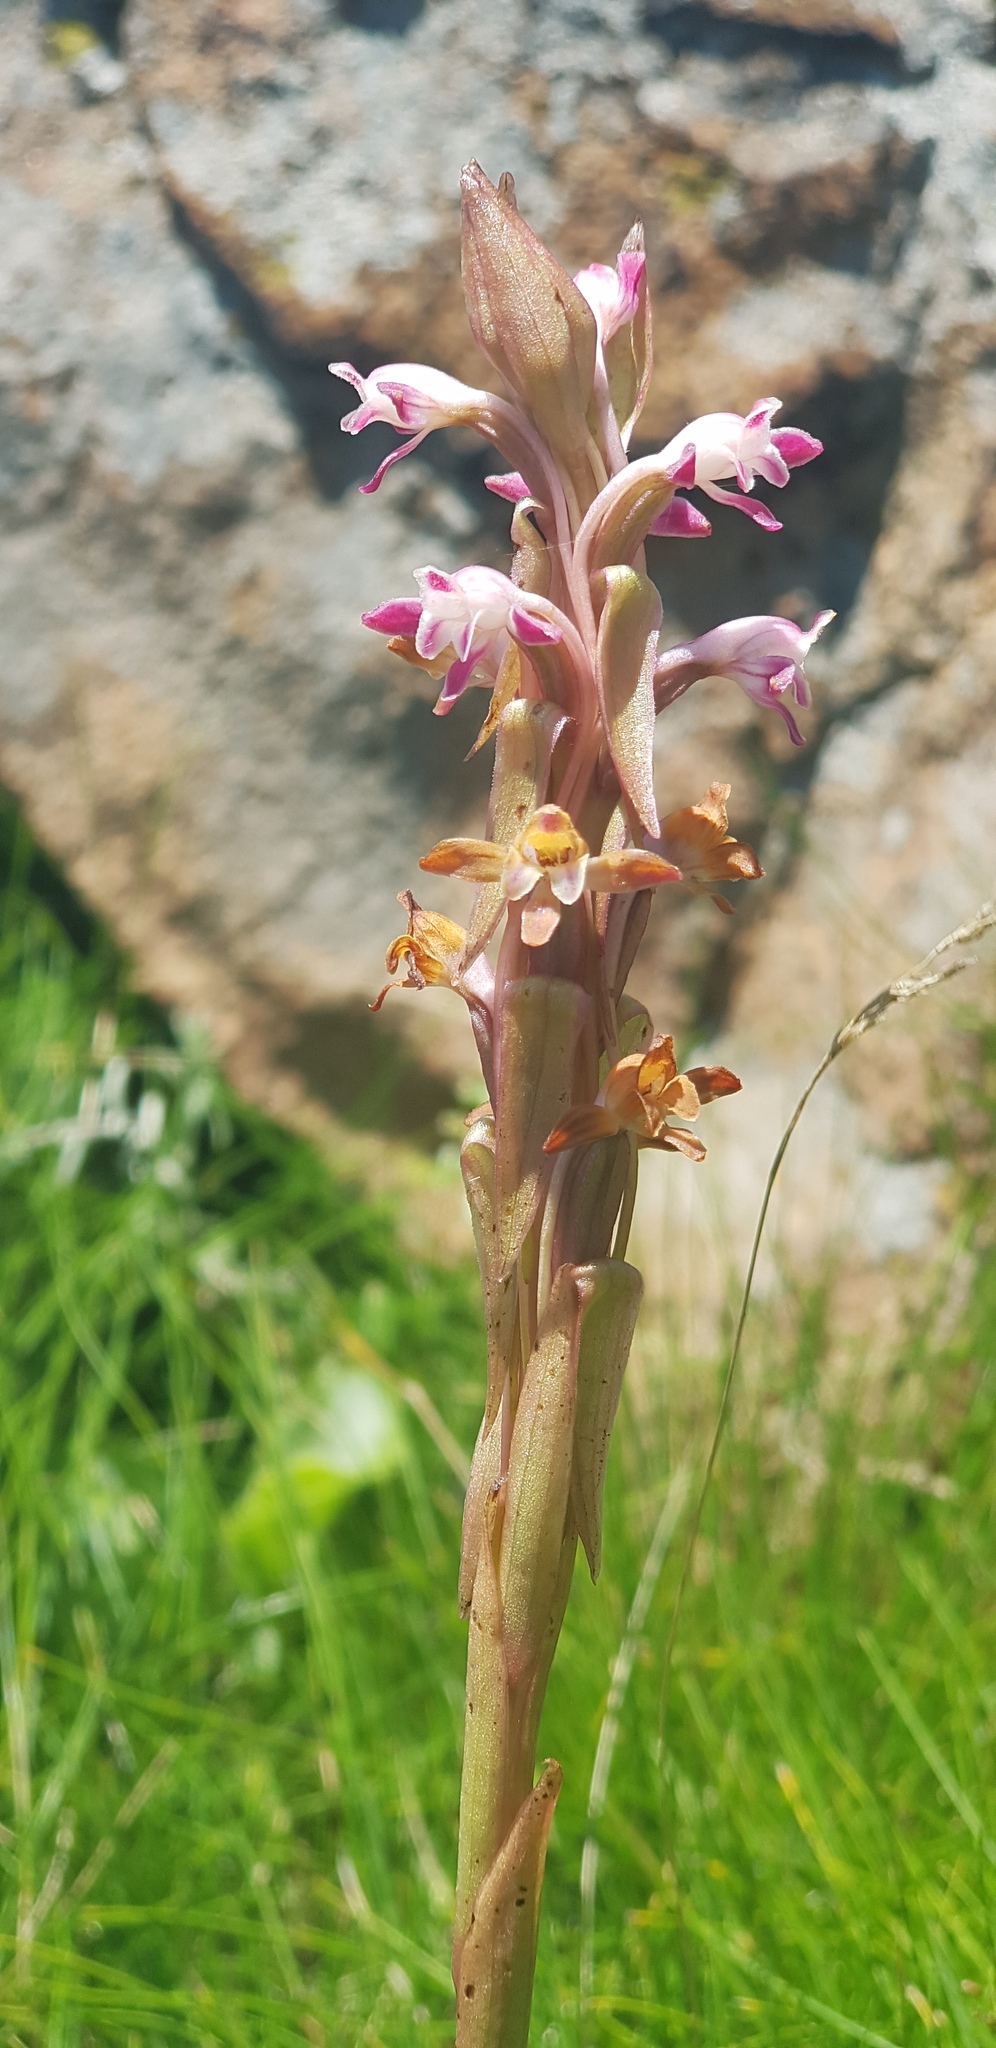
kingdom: Plantae
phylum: Tracheophyta
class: Liliopsida
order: Asparagales
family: Orchidaceae
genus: Satyrium
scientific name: Satyrium longicauda
